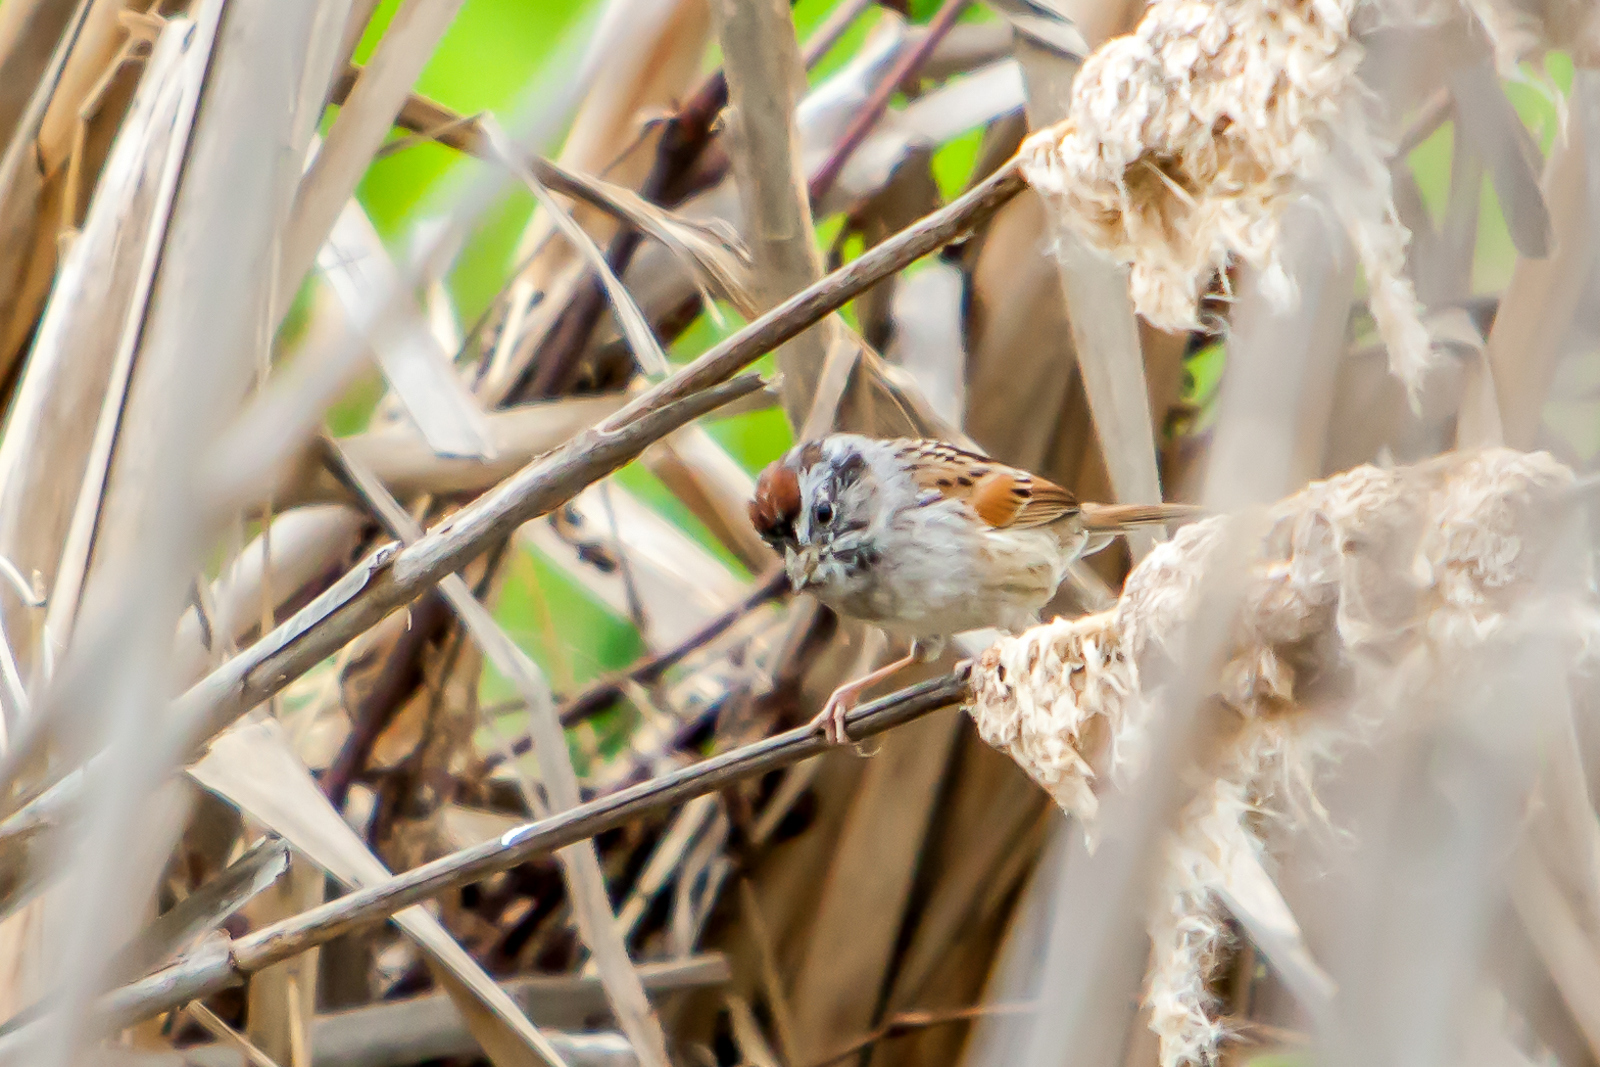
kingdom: Animalia
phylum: Chordata
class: Aves
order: Passeriformes
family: Passerellidae
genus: Melospiza
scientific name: Melospiza georgiana
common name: Swamp sparrow
